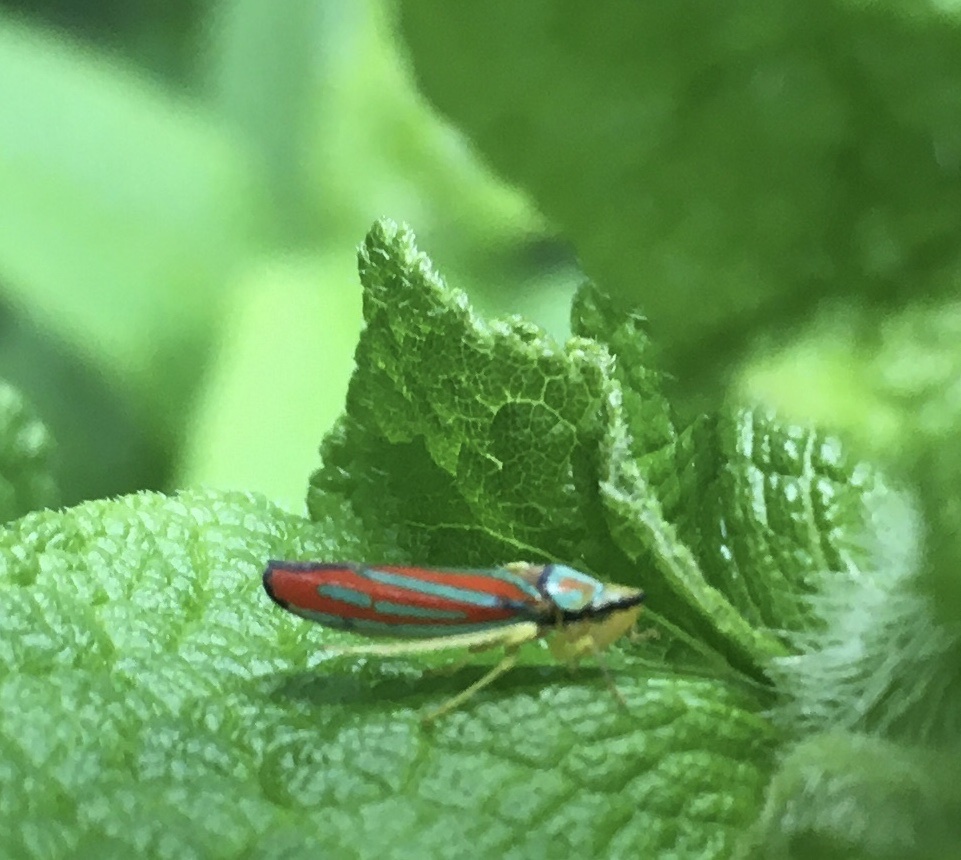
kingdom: Animalia
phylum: Arthropoda
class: Insecta
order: Hemiptera
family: Cicadellidae
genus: Graphocephala
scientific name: Graphocephala coccinea
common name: Candy-striped leafhopper
